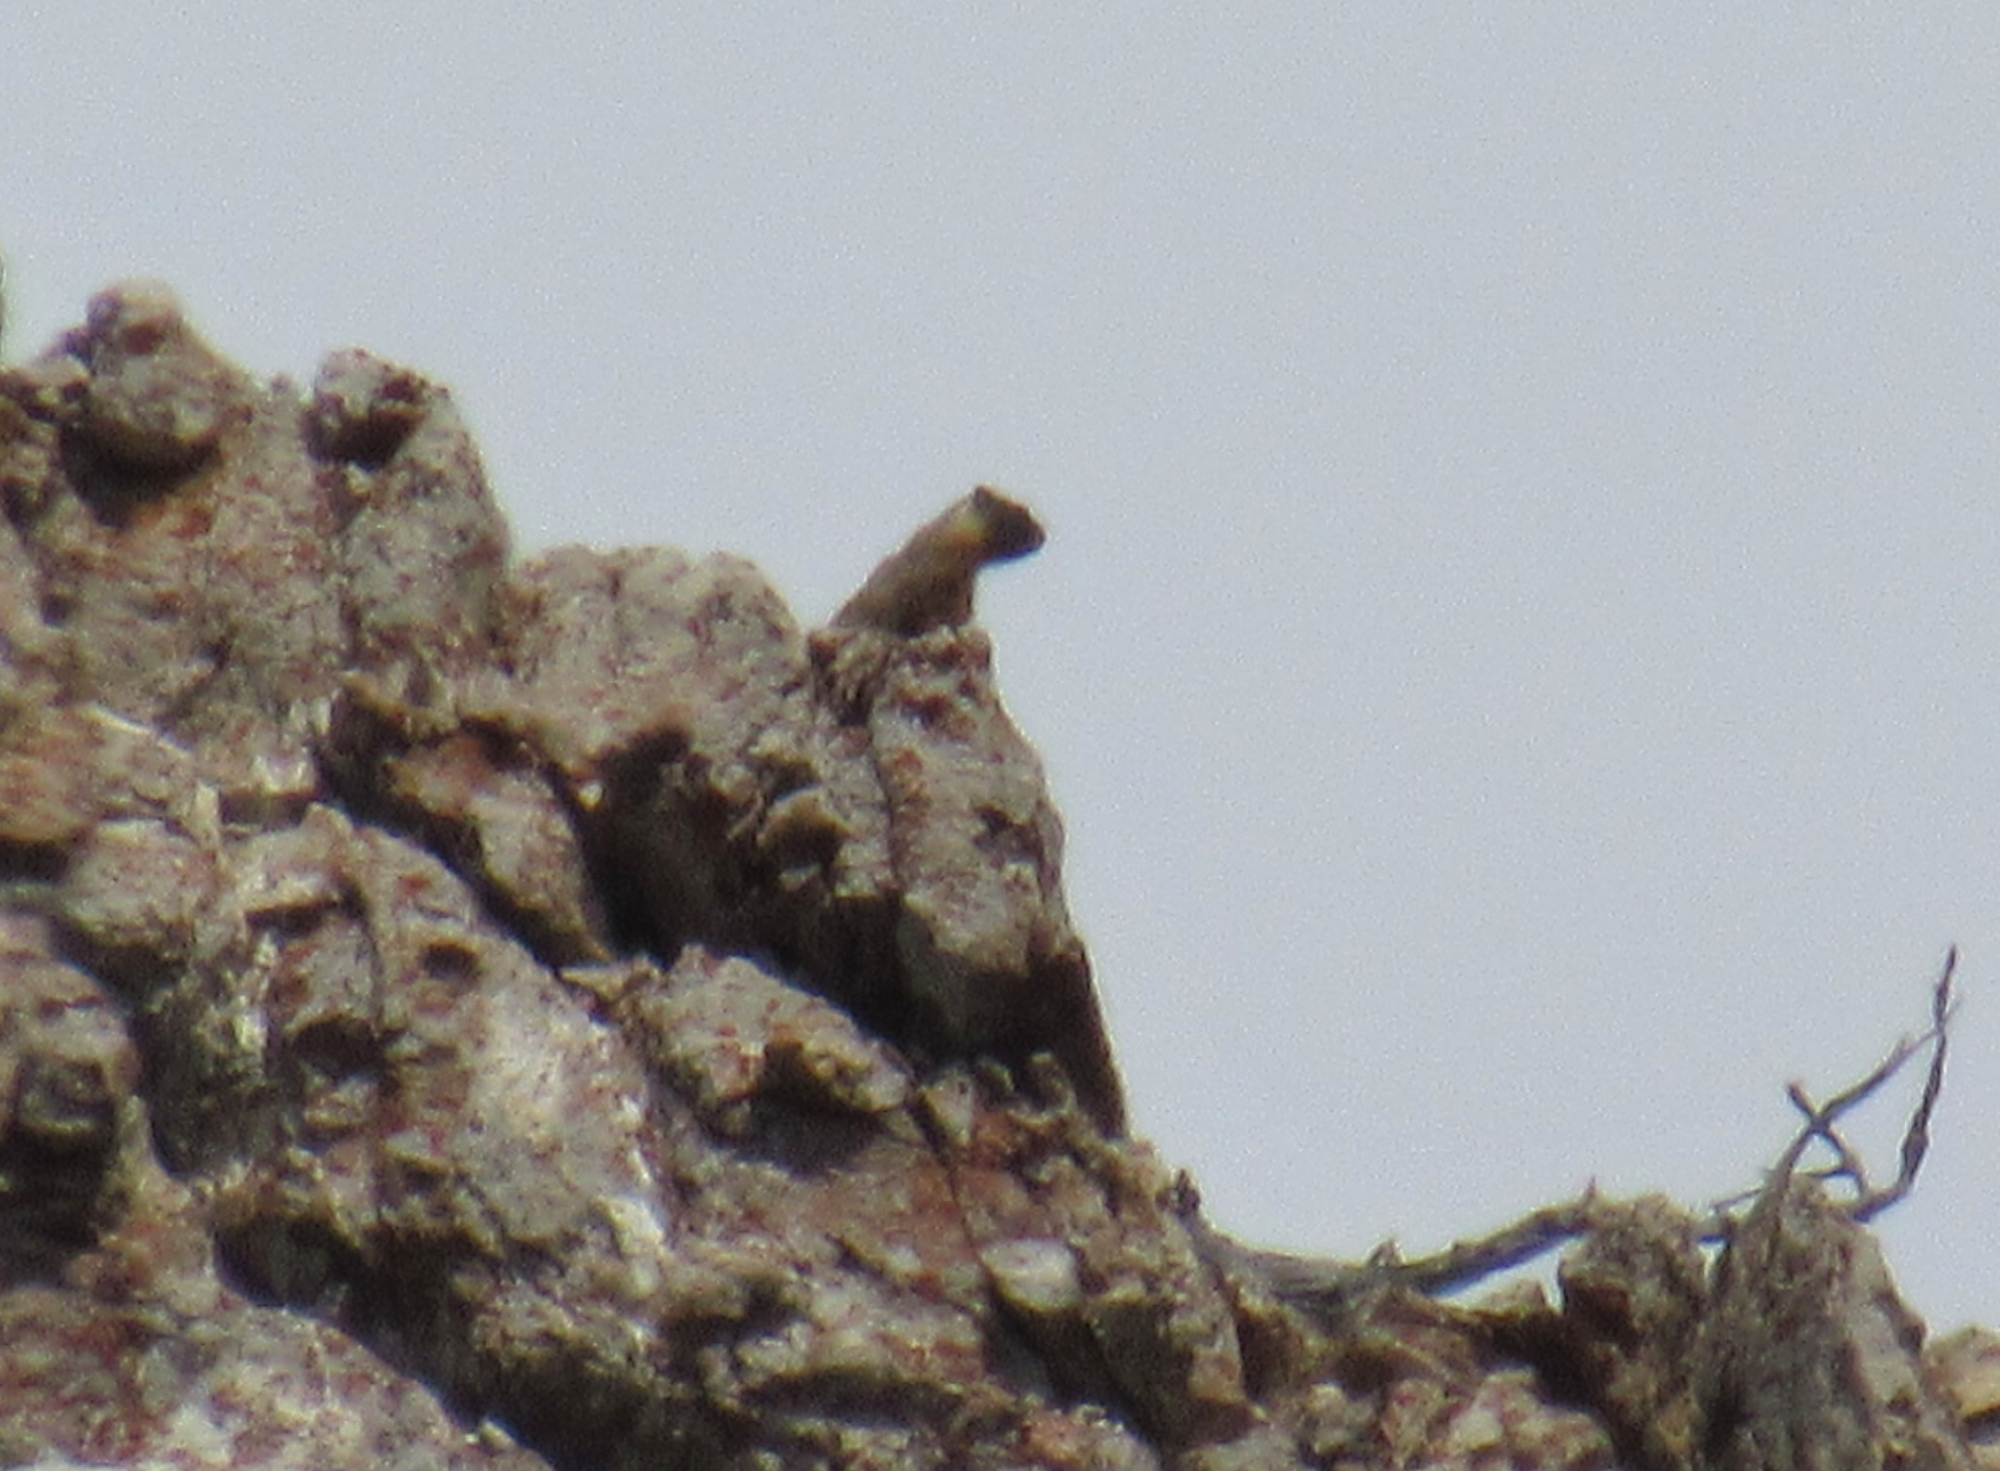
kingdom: Animalia
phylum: Chordata
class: Mammalia
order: Rodentia
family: Sciuridae
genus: Marmota
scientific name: Marmota flaviventris
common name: Yellow-bellied marmot
